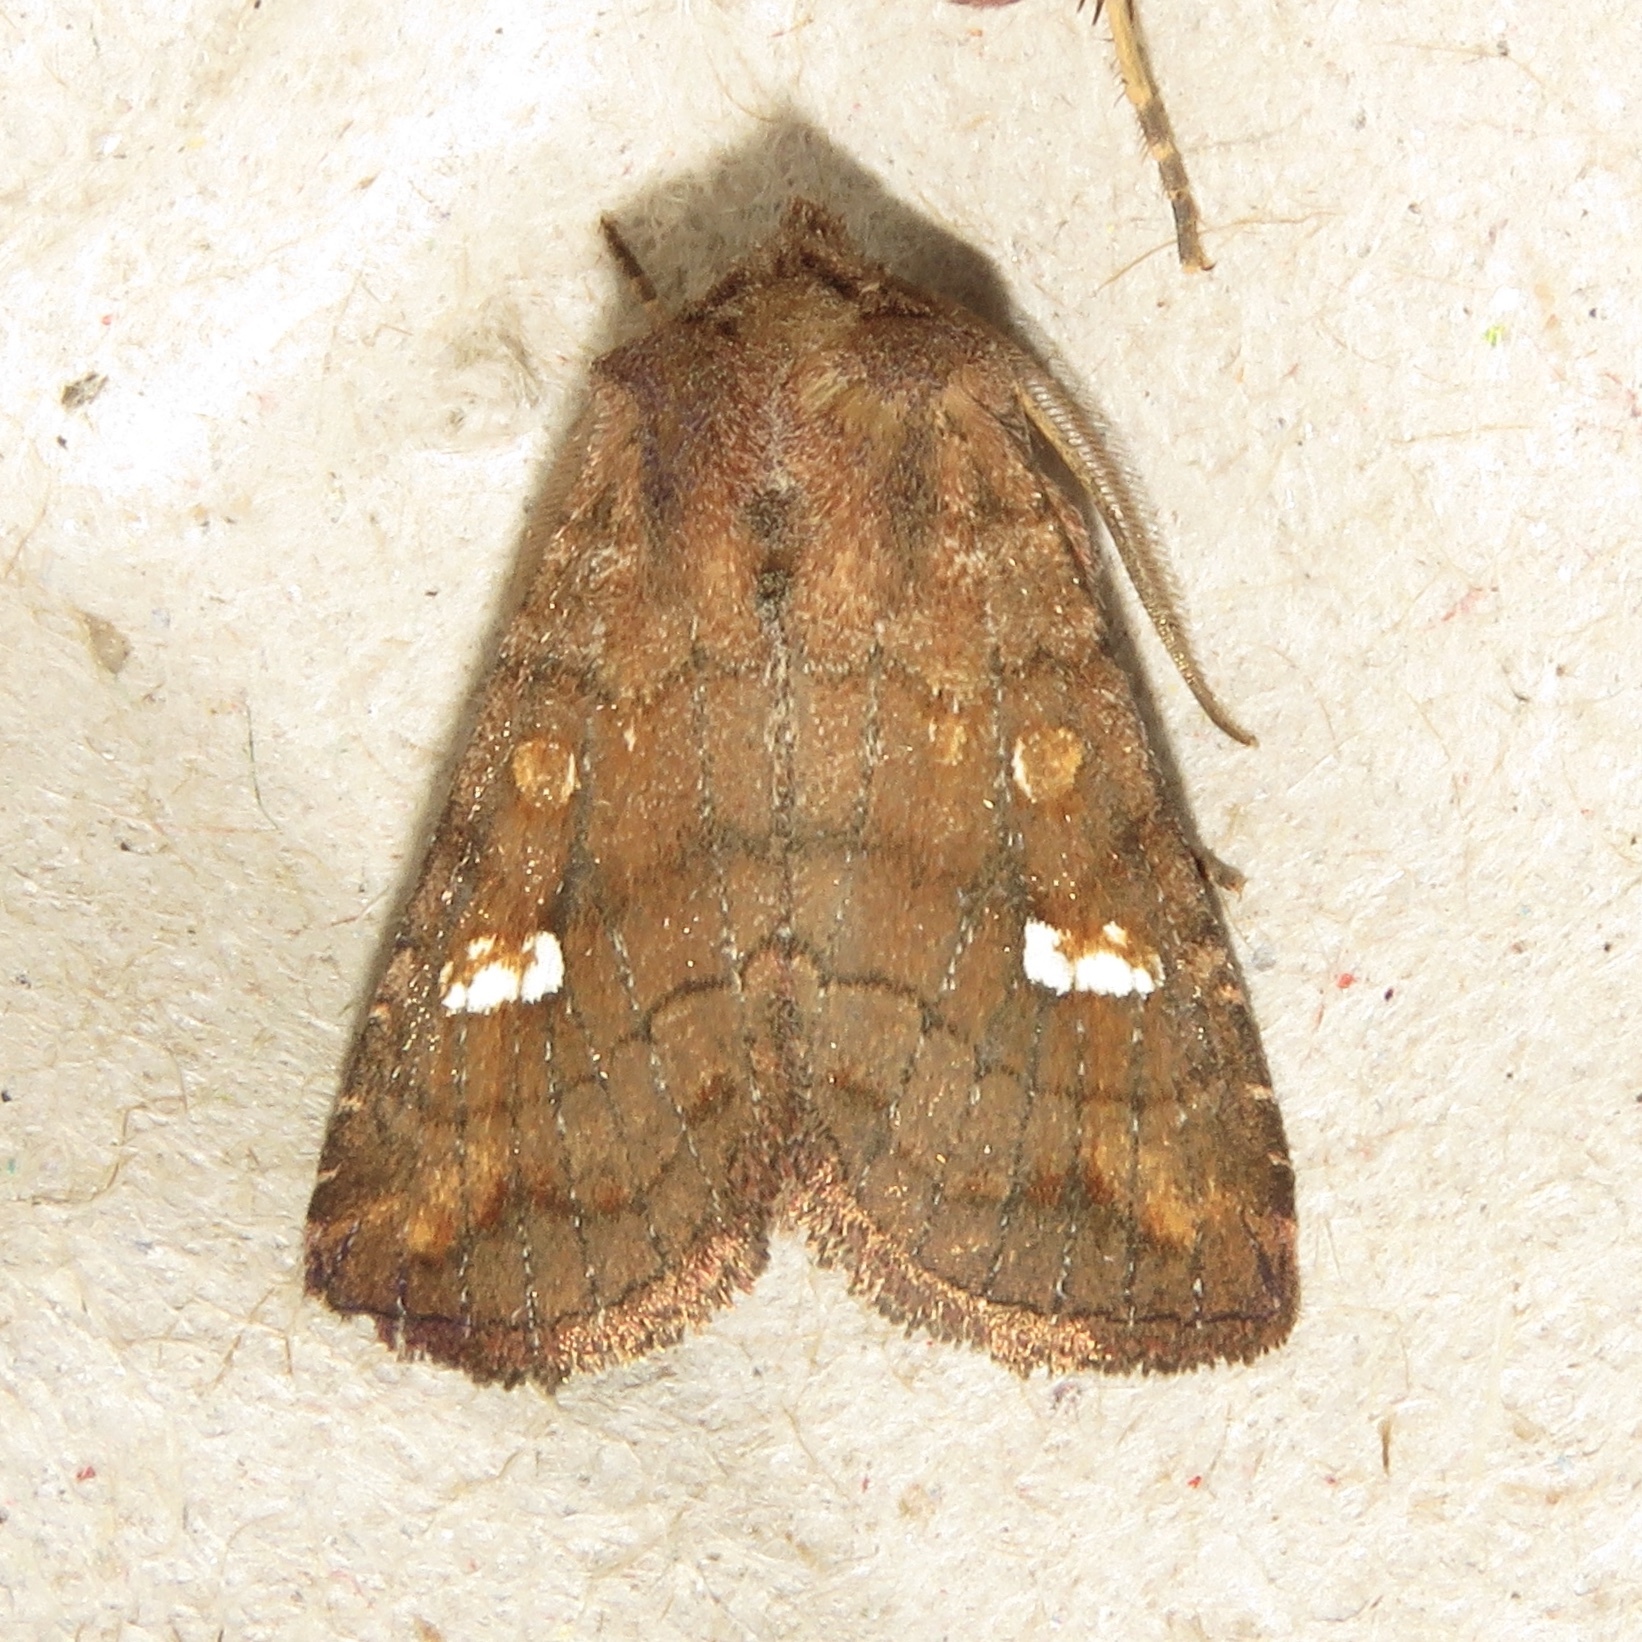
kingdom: Animalia
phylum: Arthropoda
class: Insecta
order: Lepidoptera
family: Noctuidae
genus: Tricholita
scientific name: Tricholita signata
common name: Signate quaker
